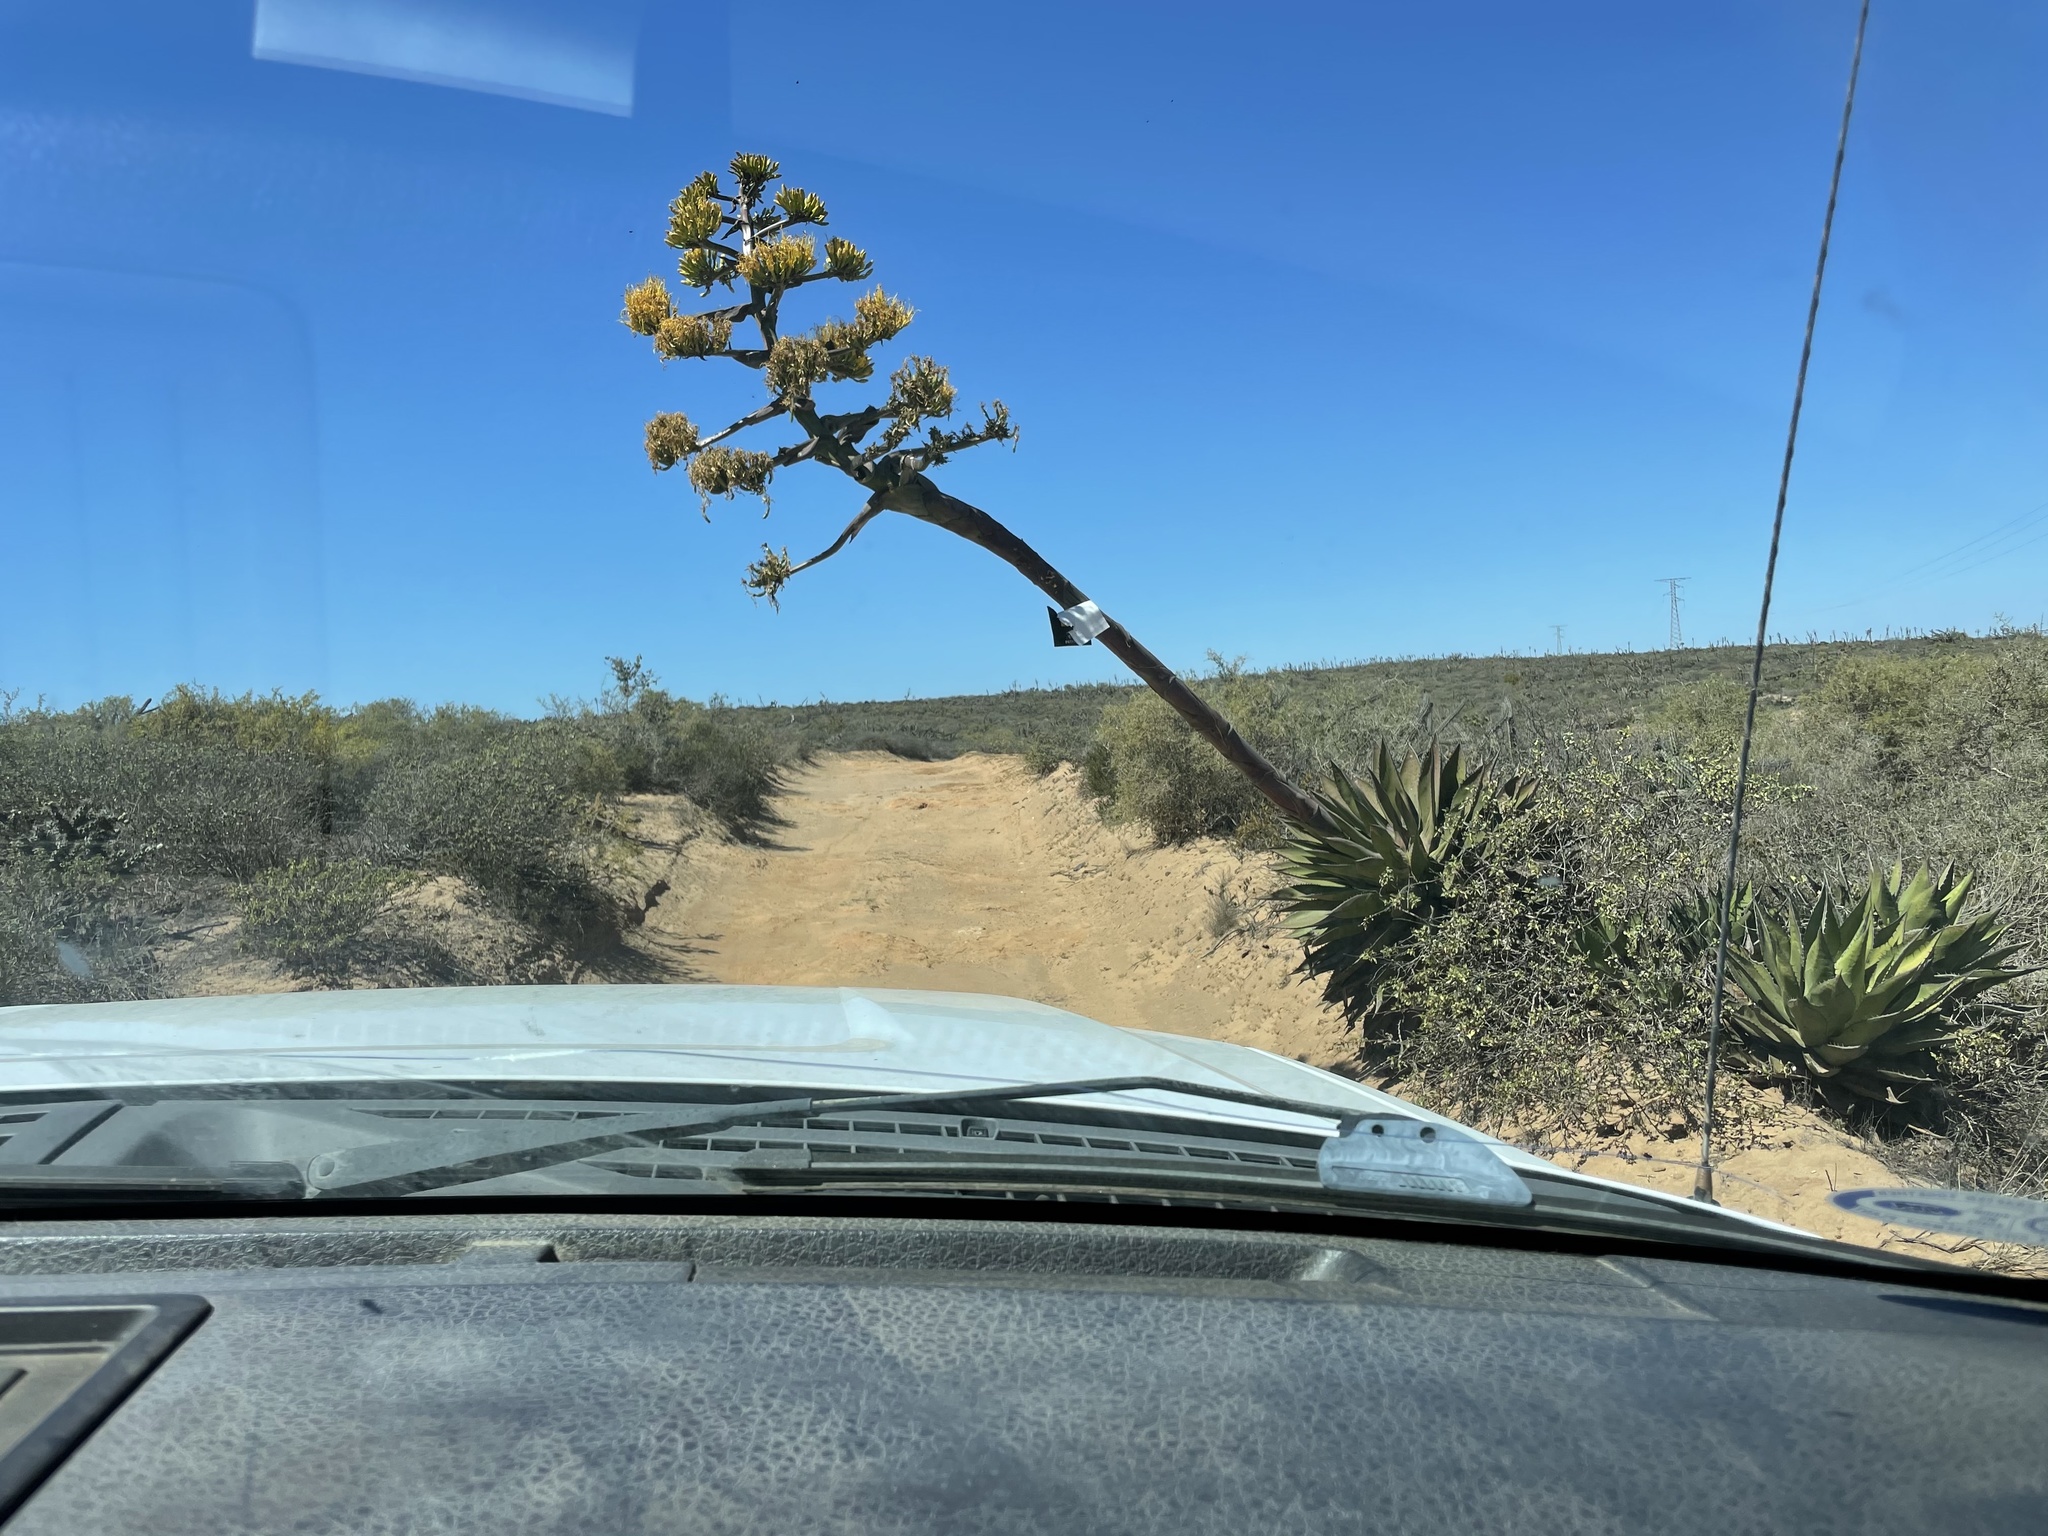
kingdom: Plantae
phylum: Tracheophyta
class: Liliopsida
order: Asparagales
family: Asparagaceae
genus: Agave
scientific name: Agave shawii
